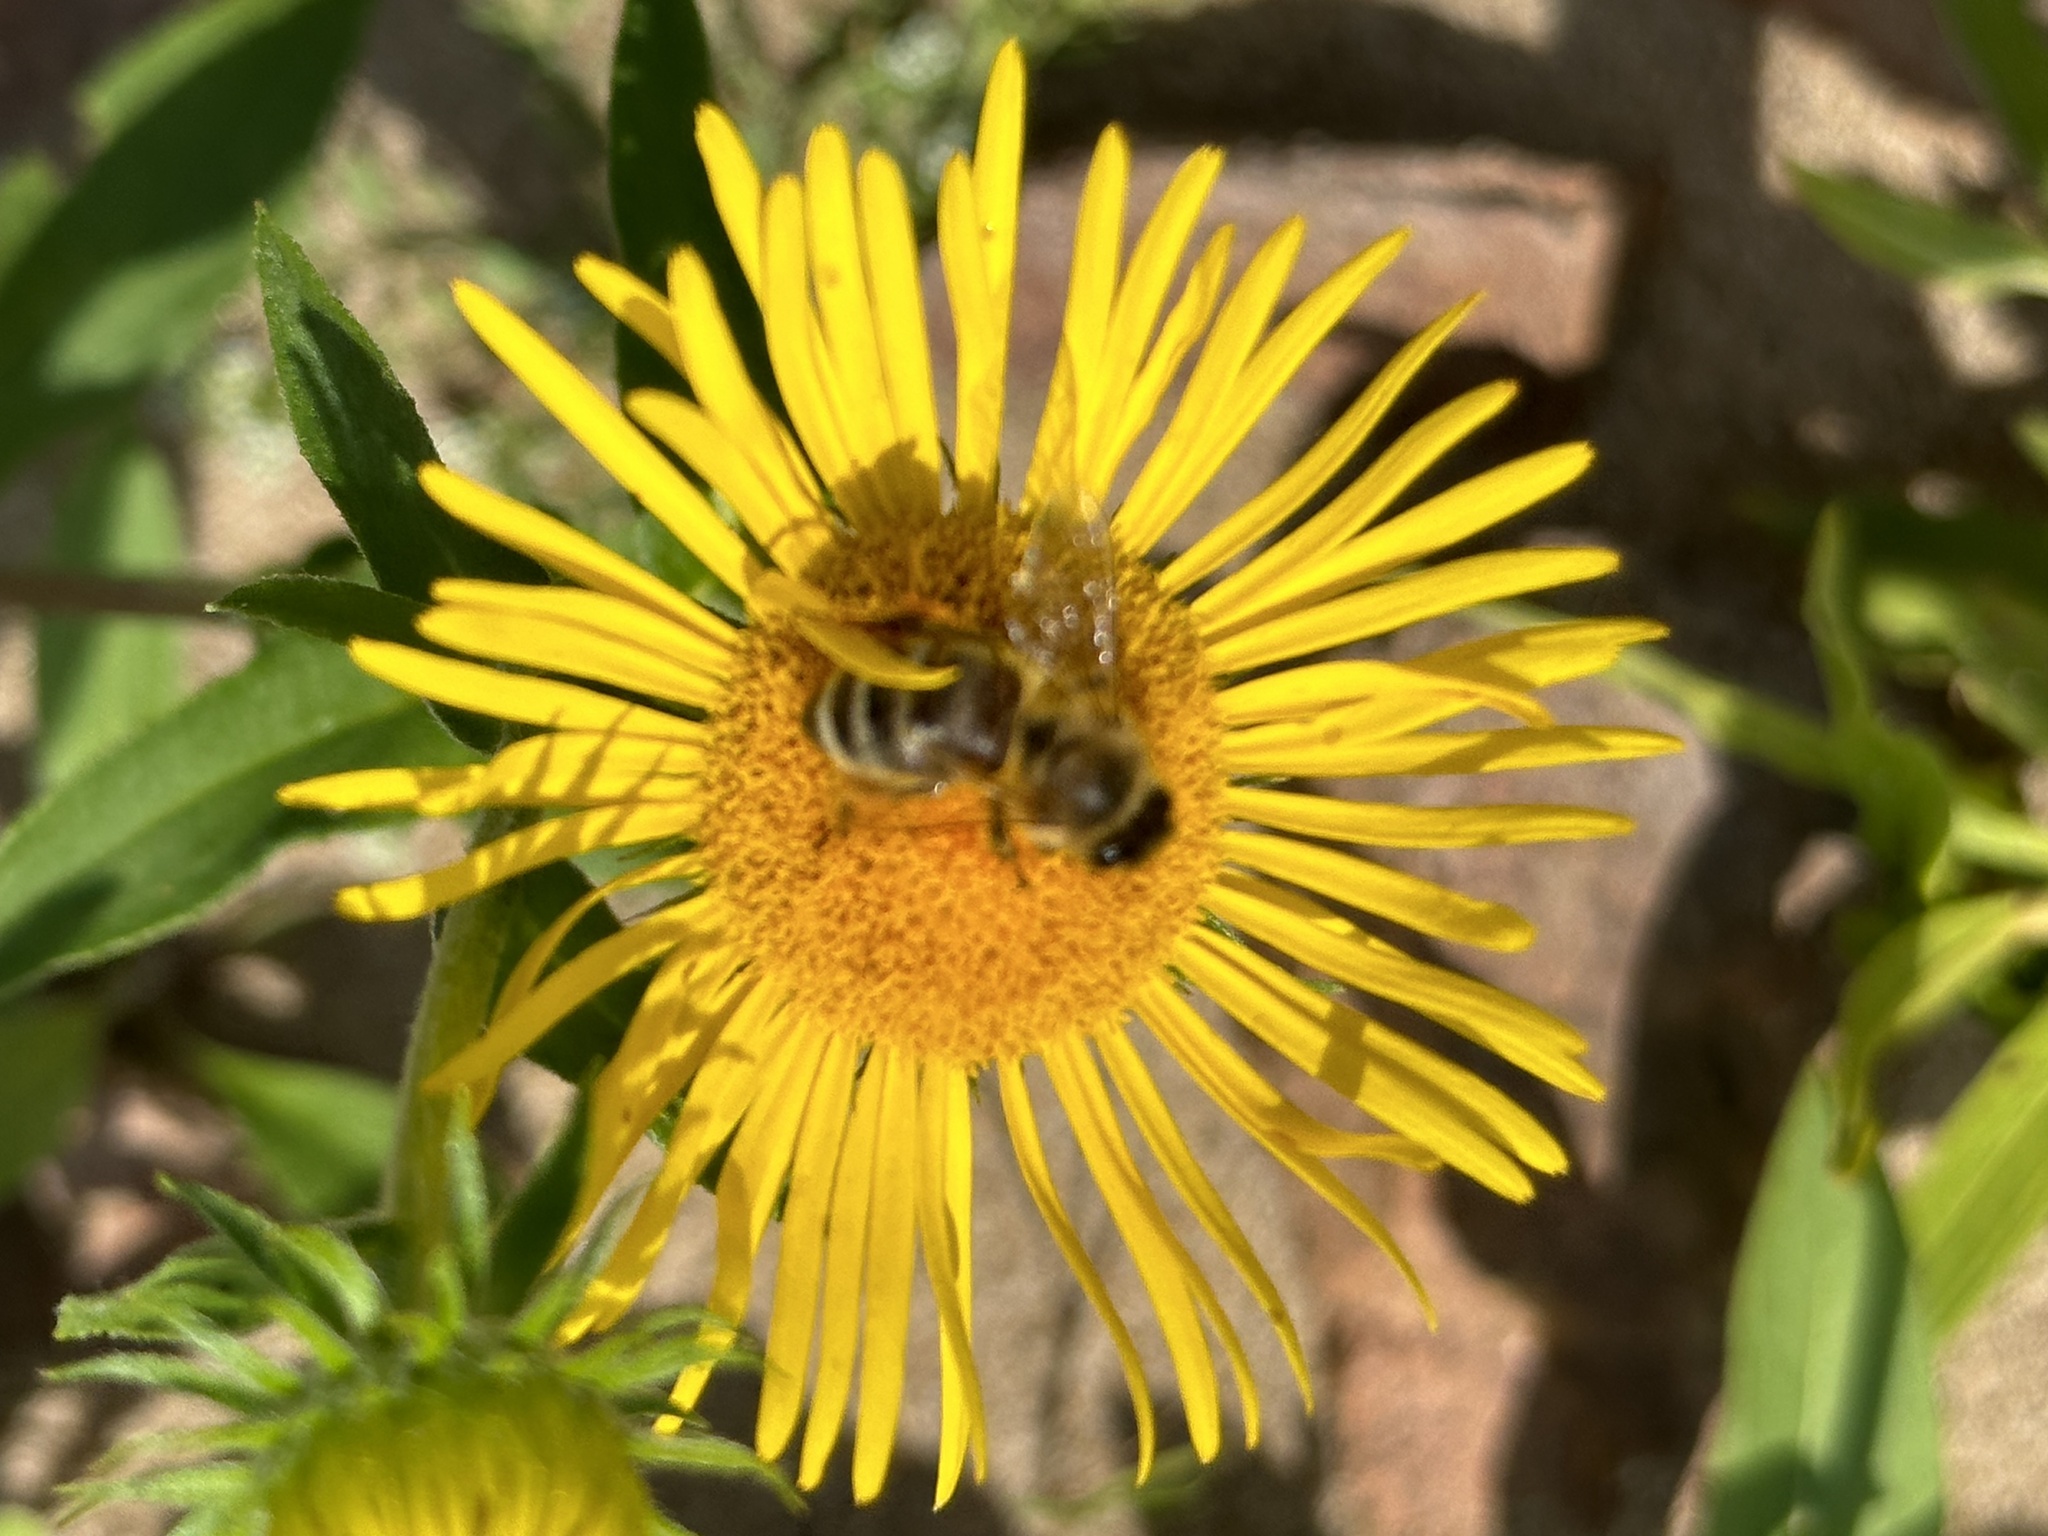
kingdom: Animalia
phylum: Arthropoda
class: Insecta
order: Hymenoptera
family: Apidae
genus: Apis
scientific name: Apis mellifera
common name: Honey bee
